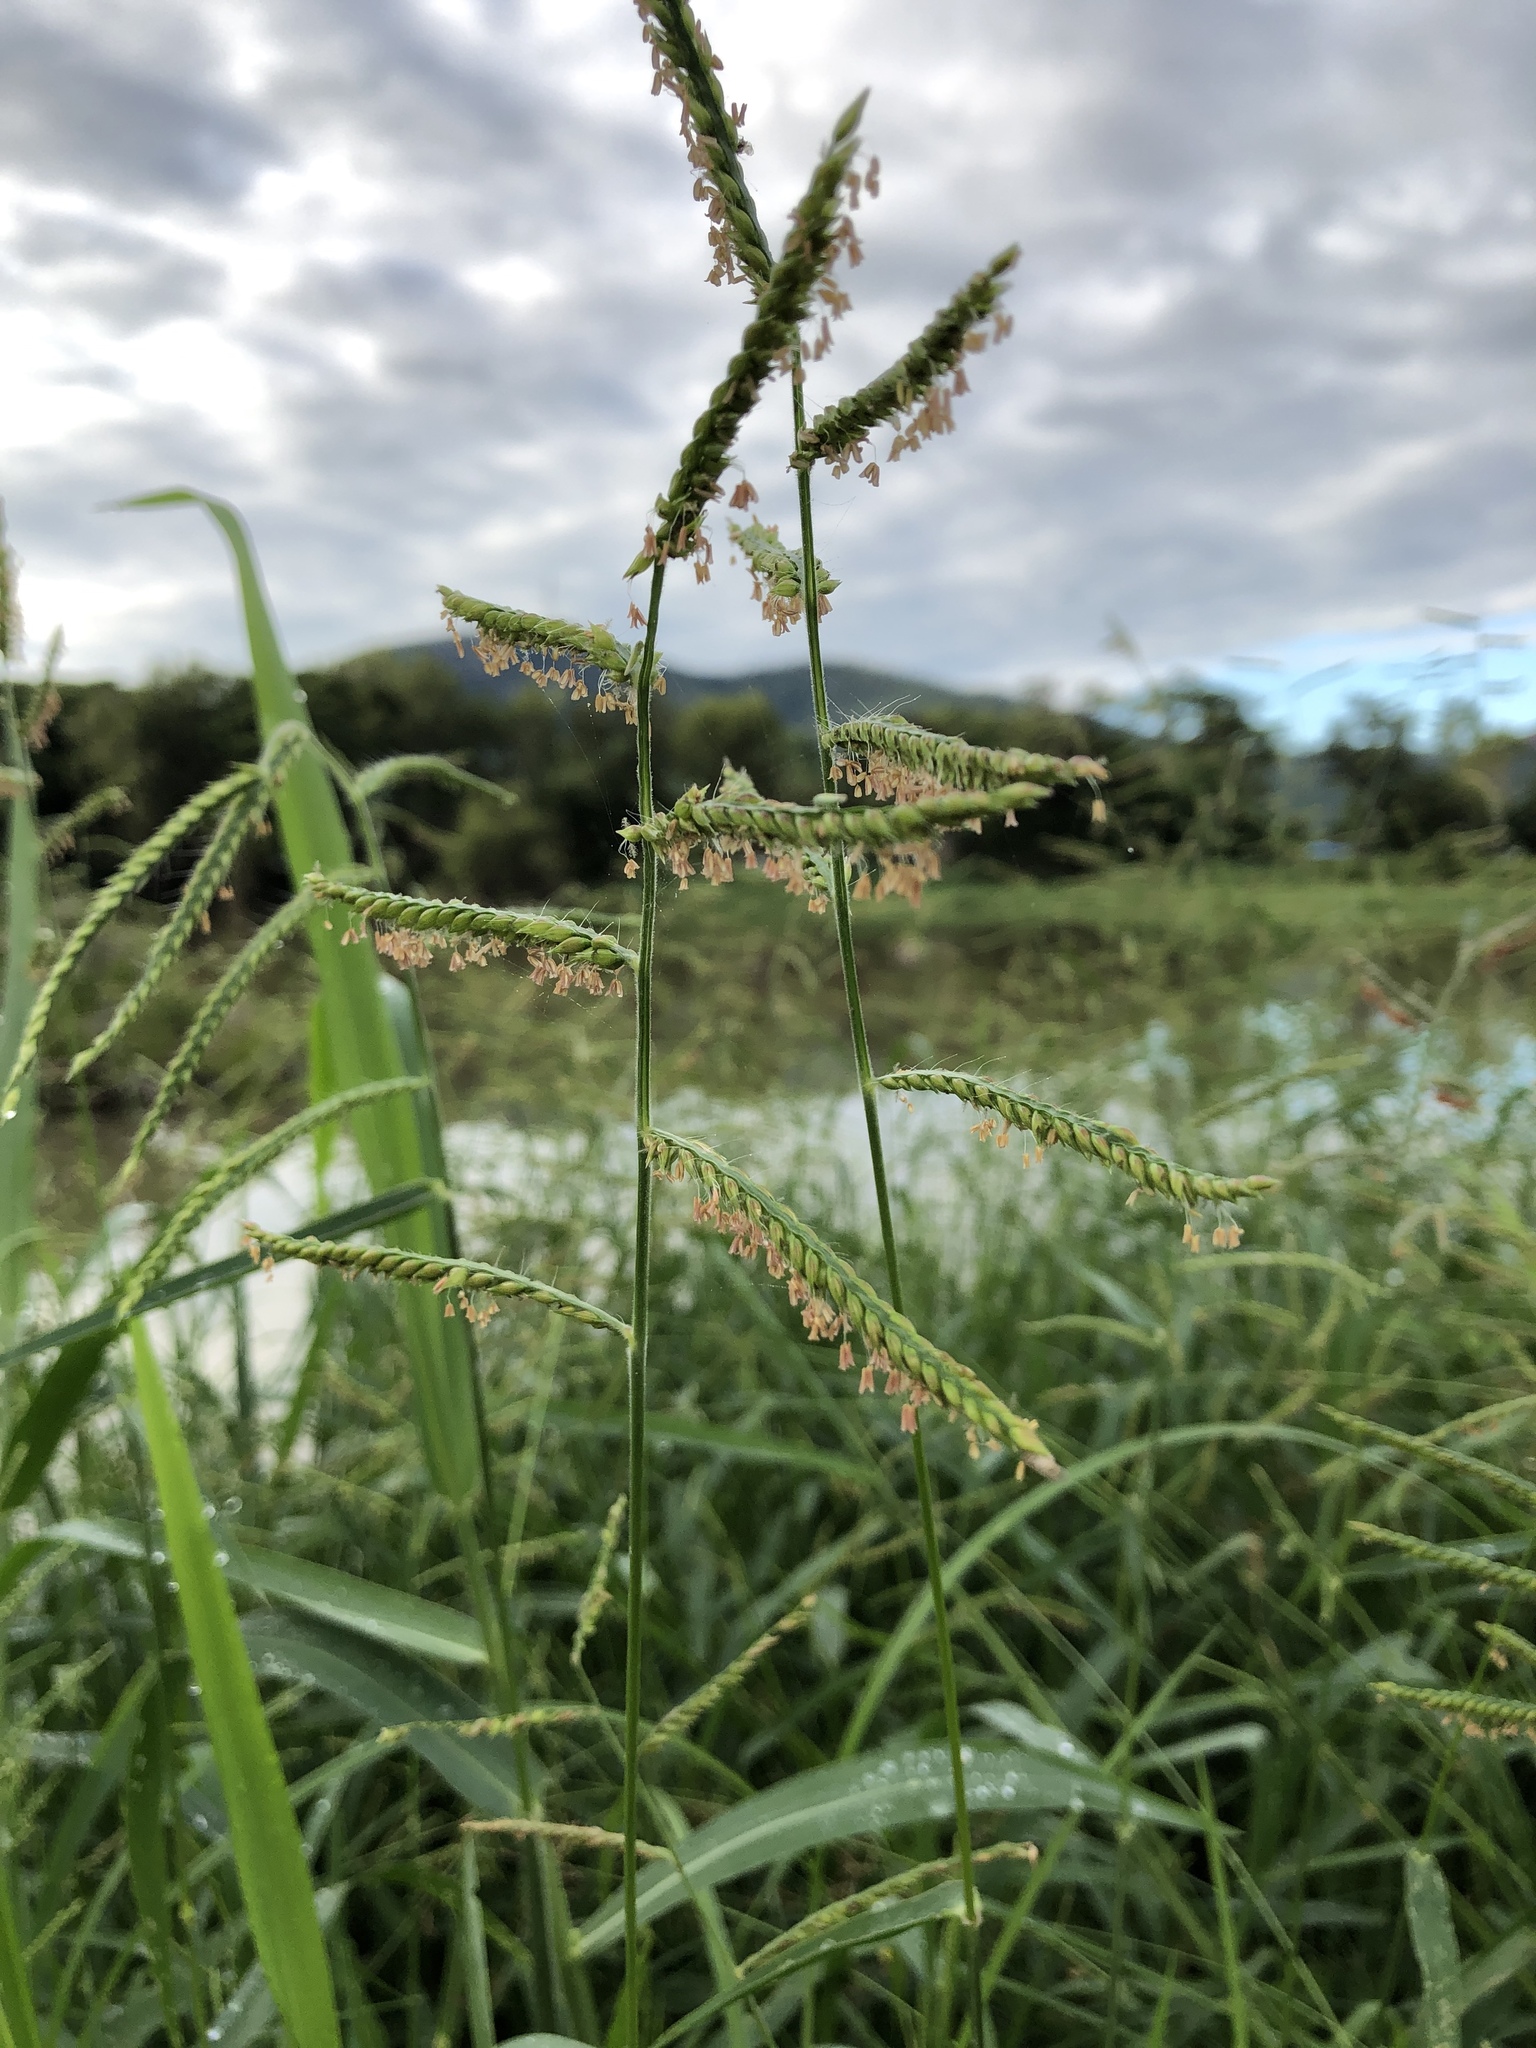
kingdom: Plantae
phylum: Tracheophyta
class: Liliopsida
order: Poales
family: Poaceae
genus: Urochloa
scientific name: Urochloa trichopus
